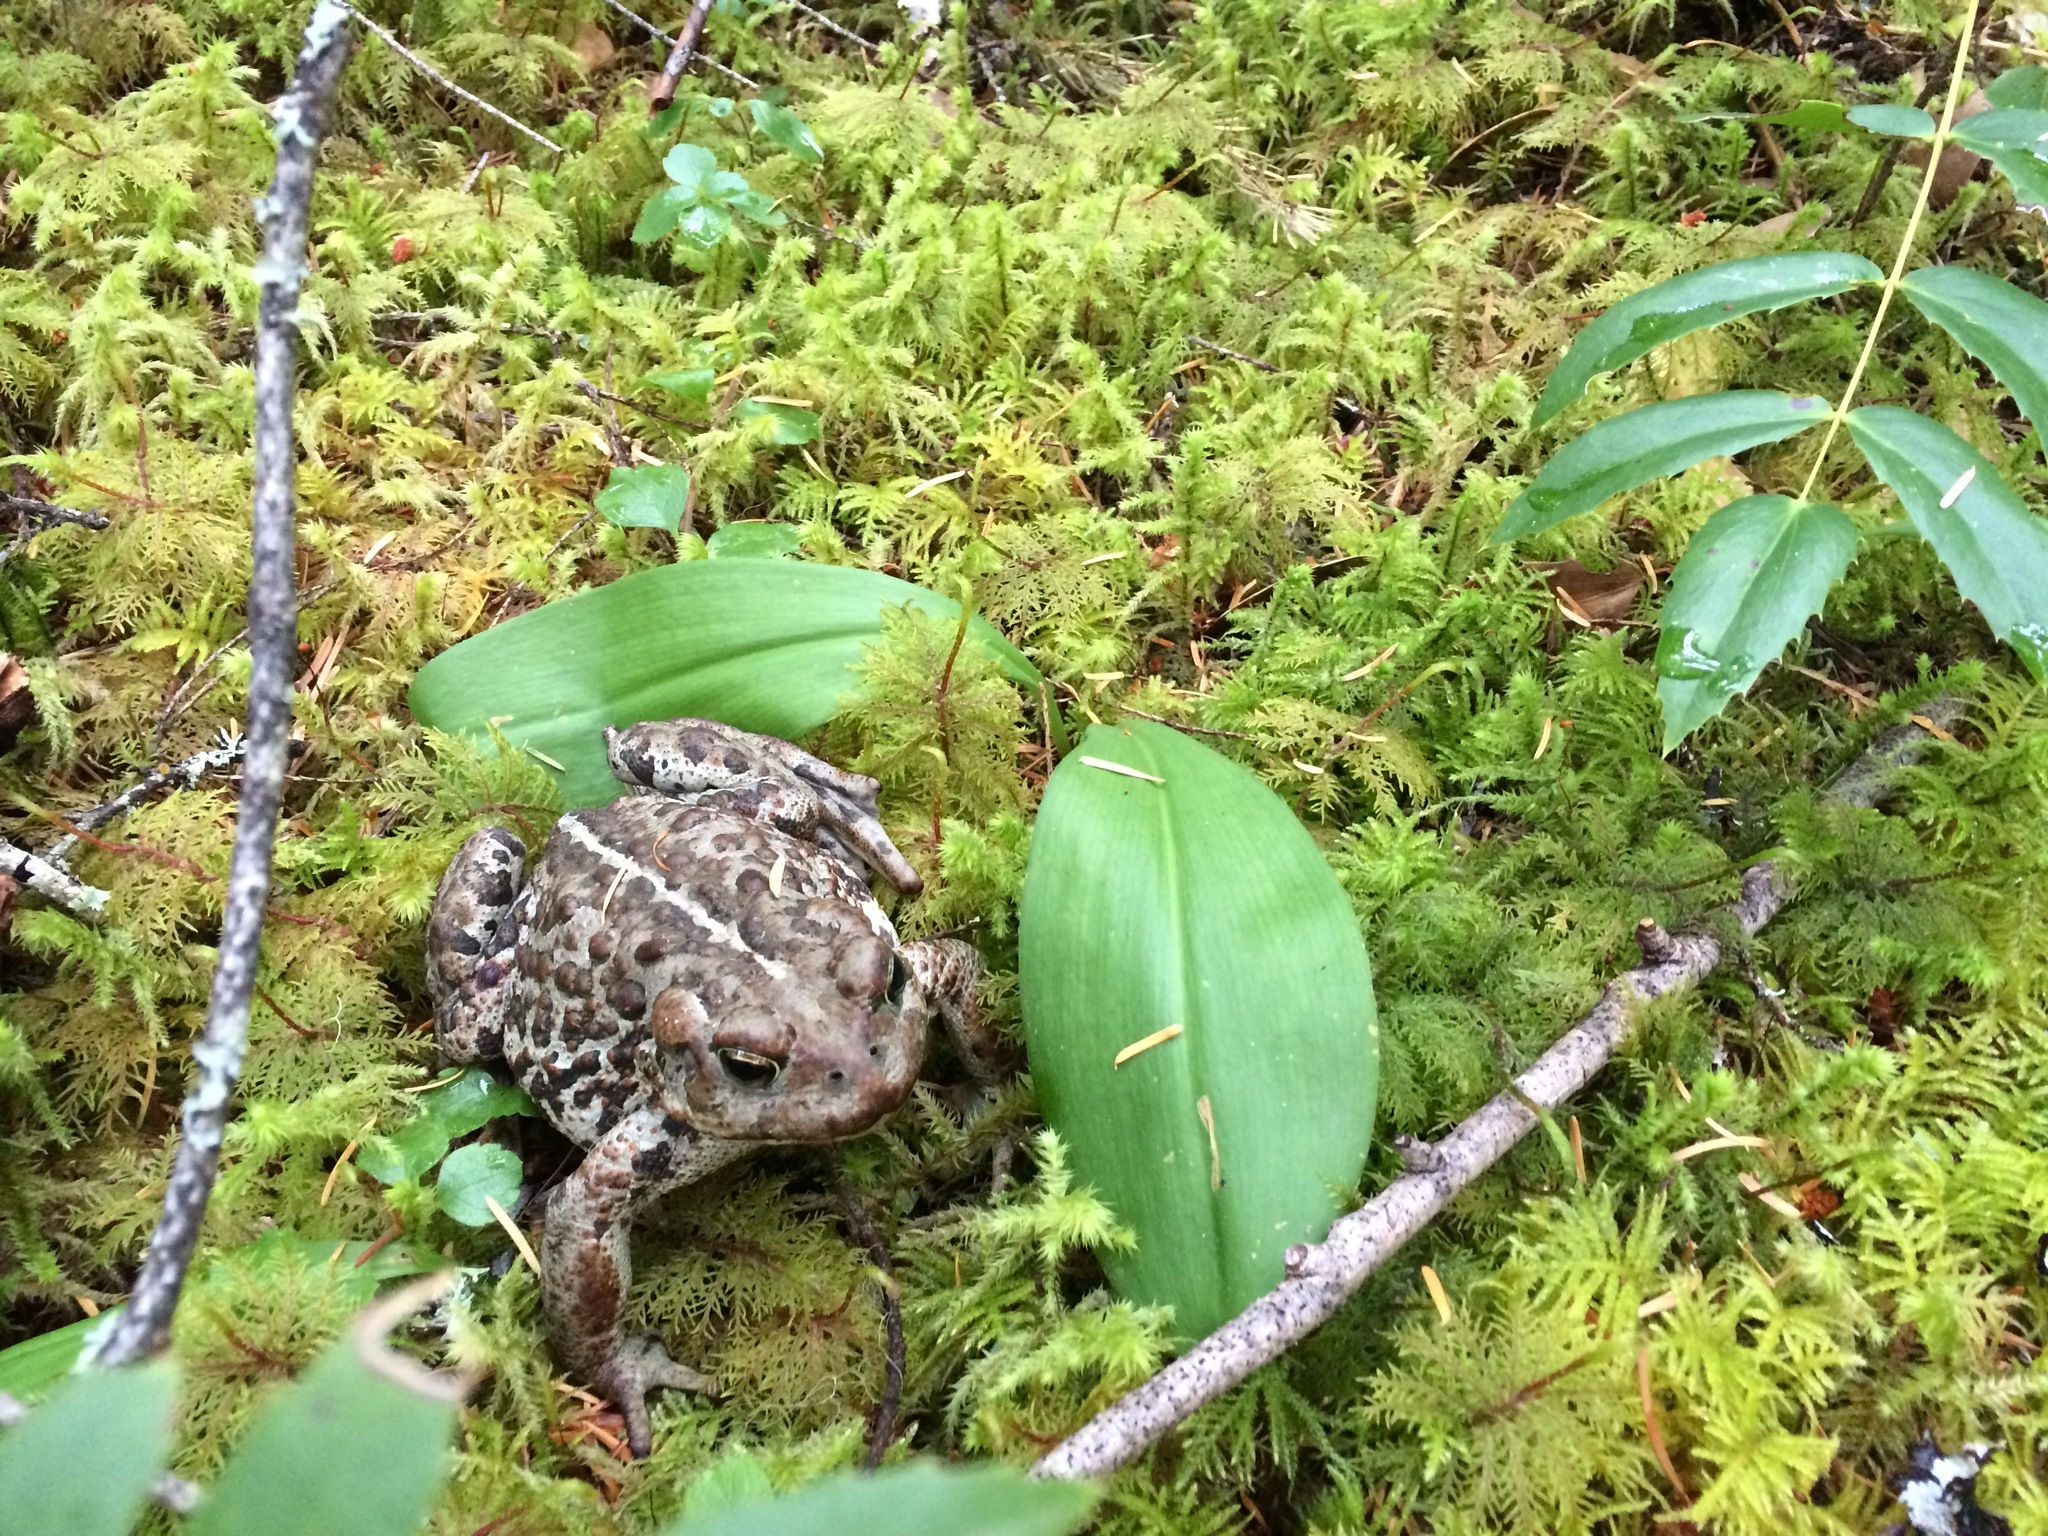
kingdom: Animalia
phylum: Chordata
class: Amphibia
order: Anura
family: Bufonidae
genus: Anaxyrus
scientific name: Anaxyrus boreas
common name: Western toad
